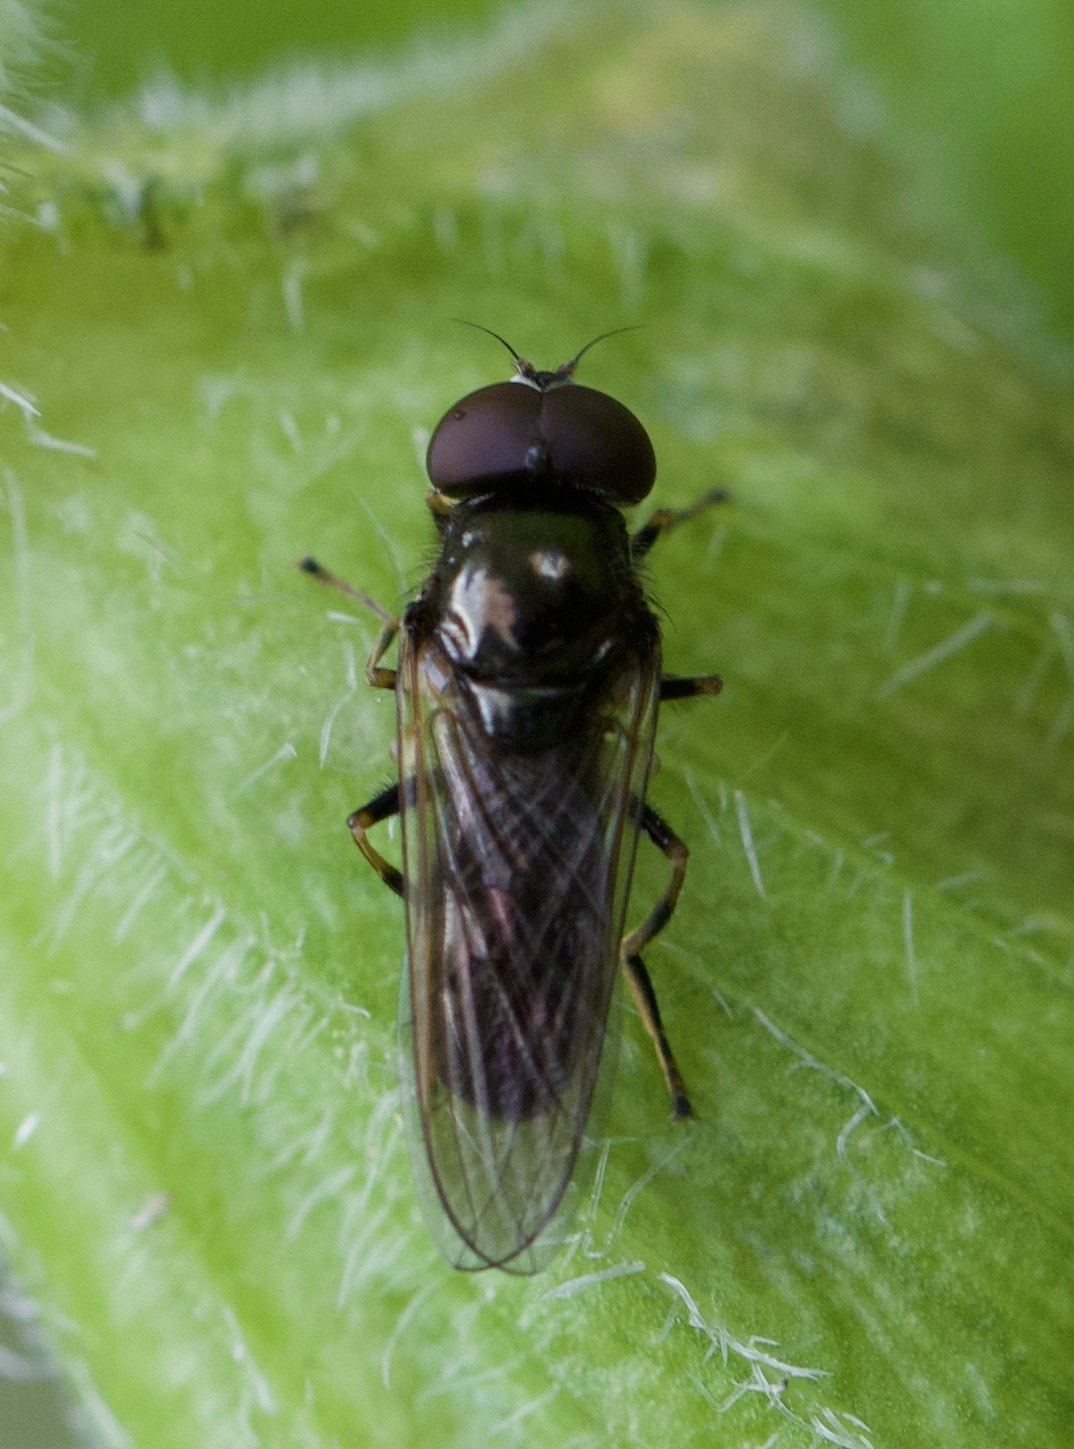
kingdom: Animalia
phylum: Arthropoda
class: Insecta
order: Diptera
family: Syrphidae
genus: Cheilosia
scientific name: Cheilosia pagana
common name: Hover fly
